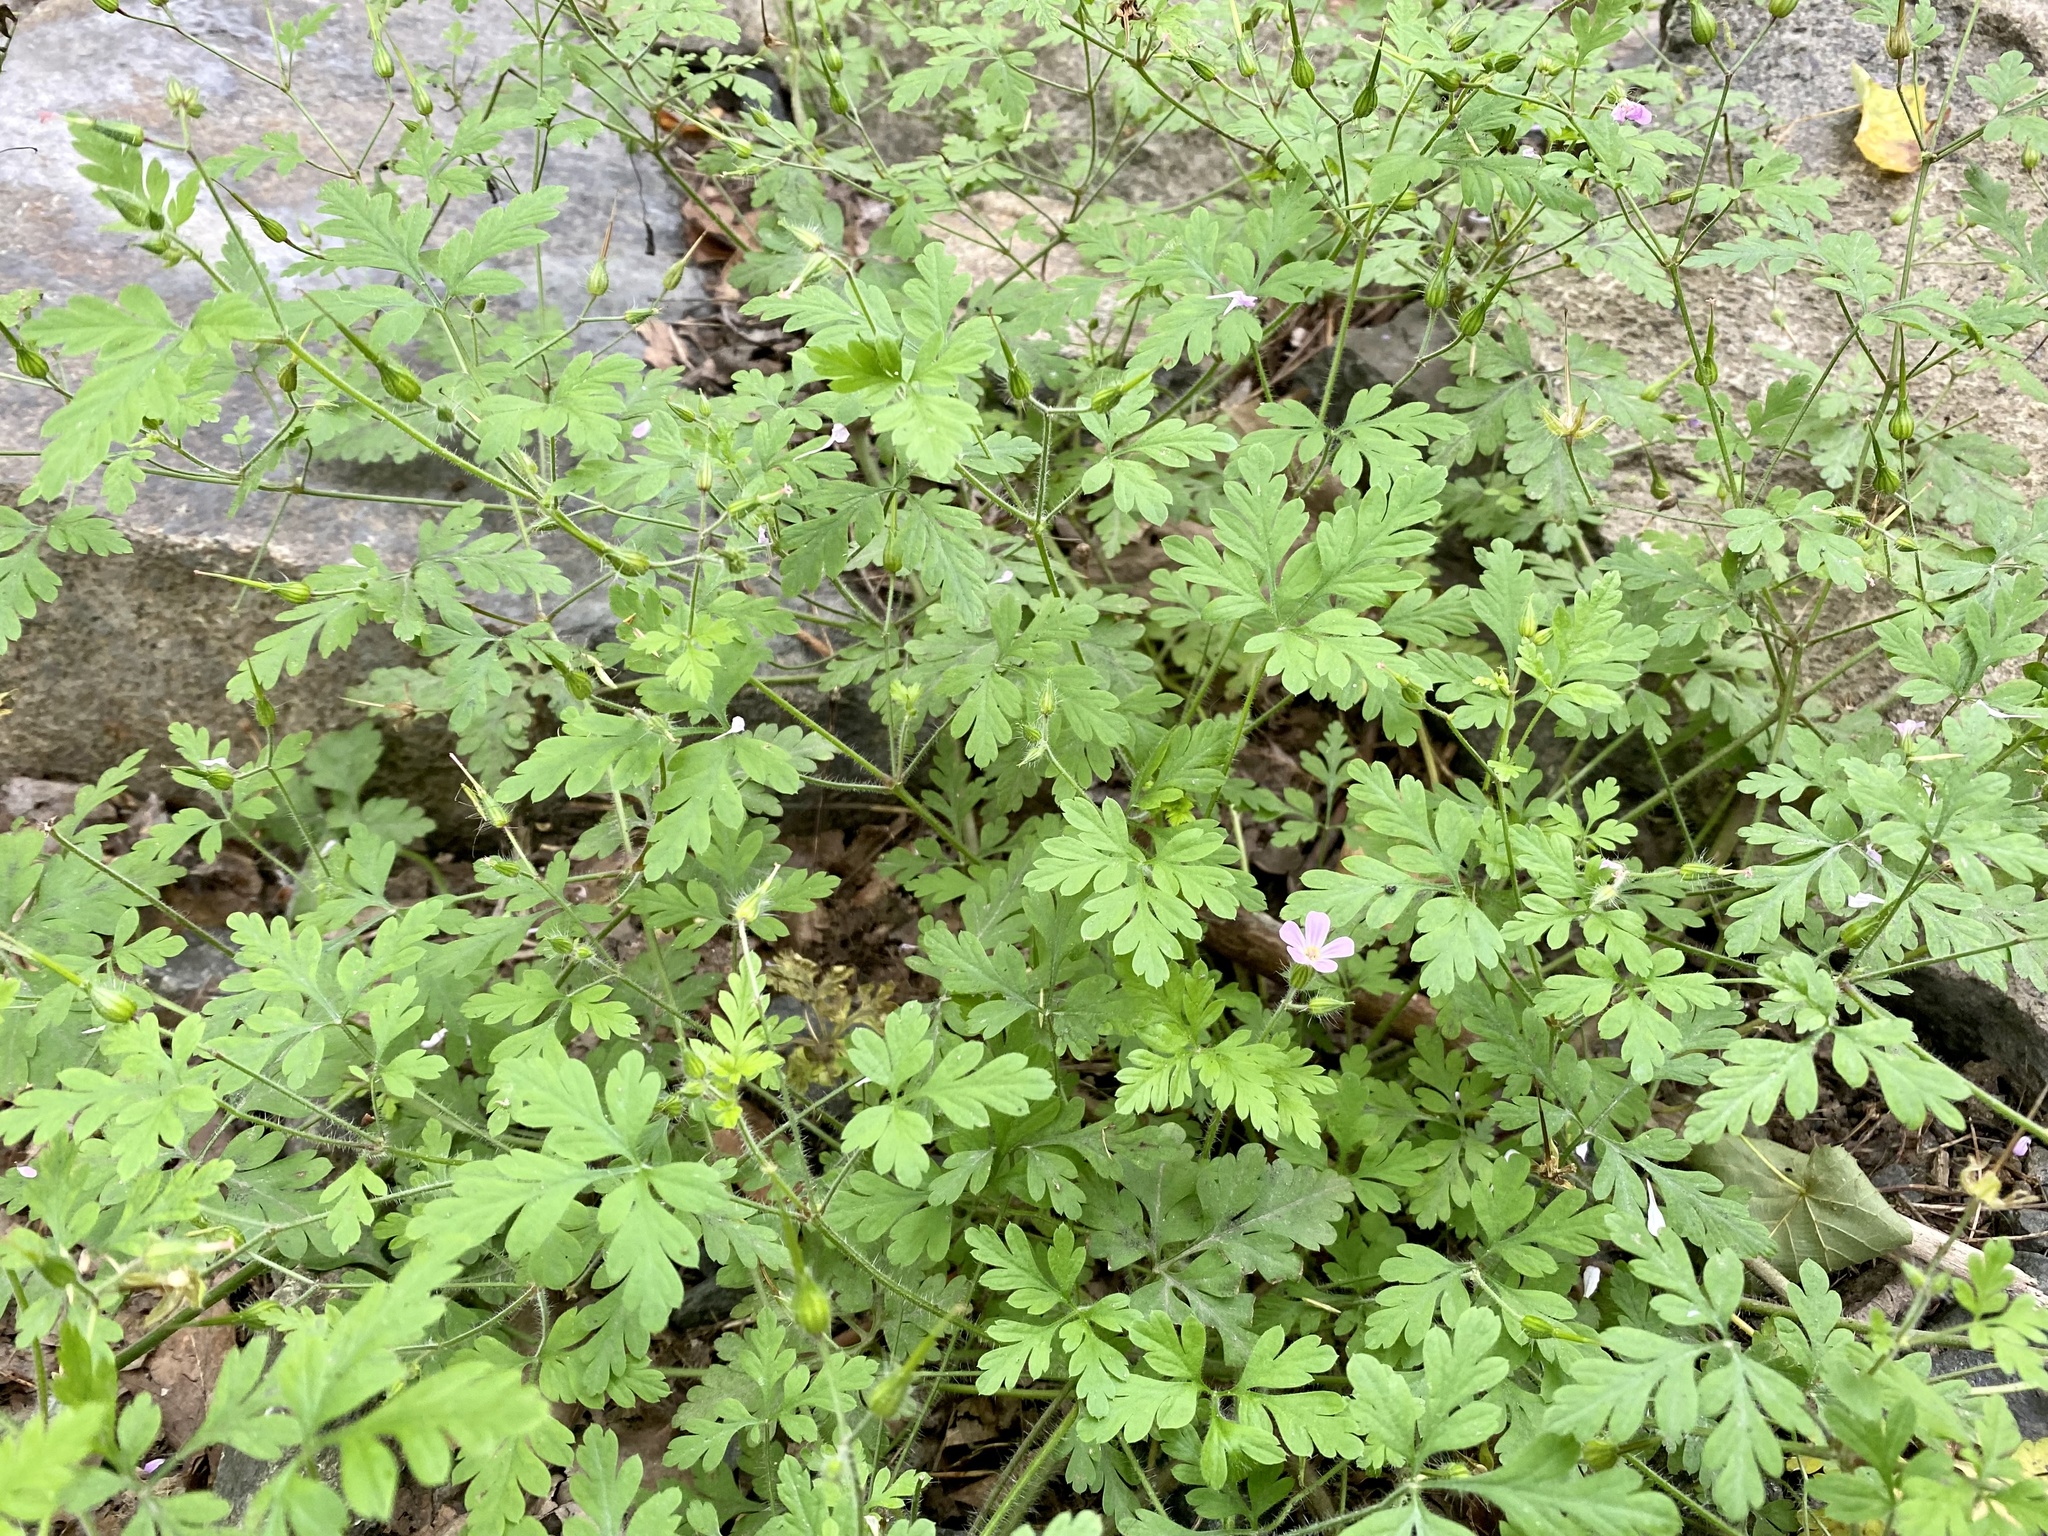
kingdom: Plantae
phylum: Tracheophyta
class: Magnoliopsida
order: Geraniales
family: Geraniaceae
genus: Geranium
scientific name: Geranium robertianum
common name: Herb-robert
